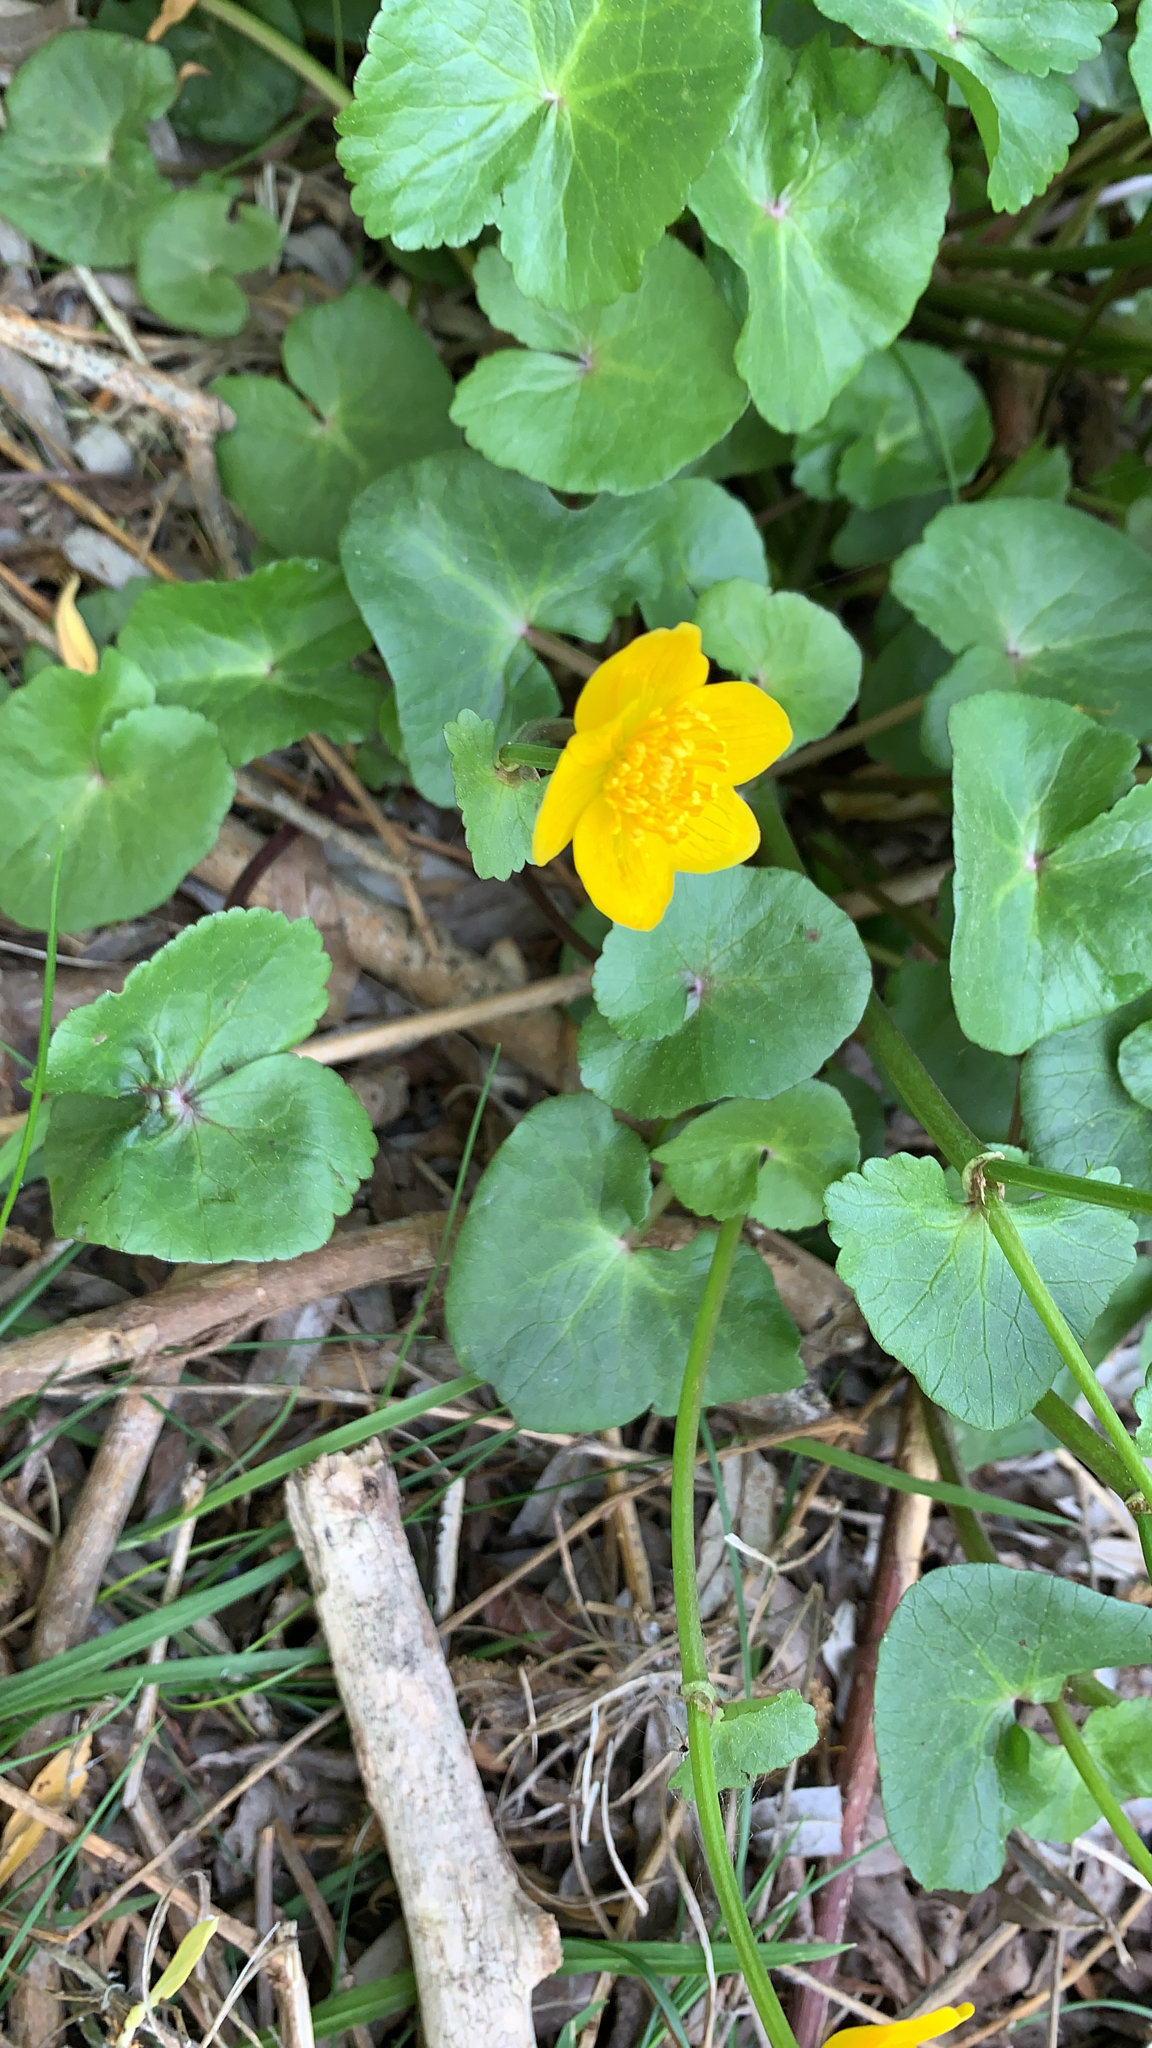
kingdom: Plantae
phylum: Tracheophyta
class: Magnoliopsida
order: Ranunculales
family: Ranunculaceae
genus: Caltha
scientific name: Caltha palustris
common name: Marsh marigold
